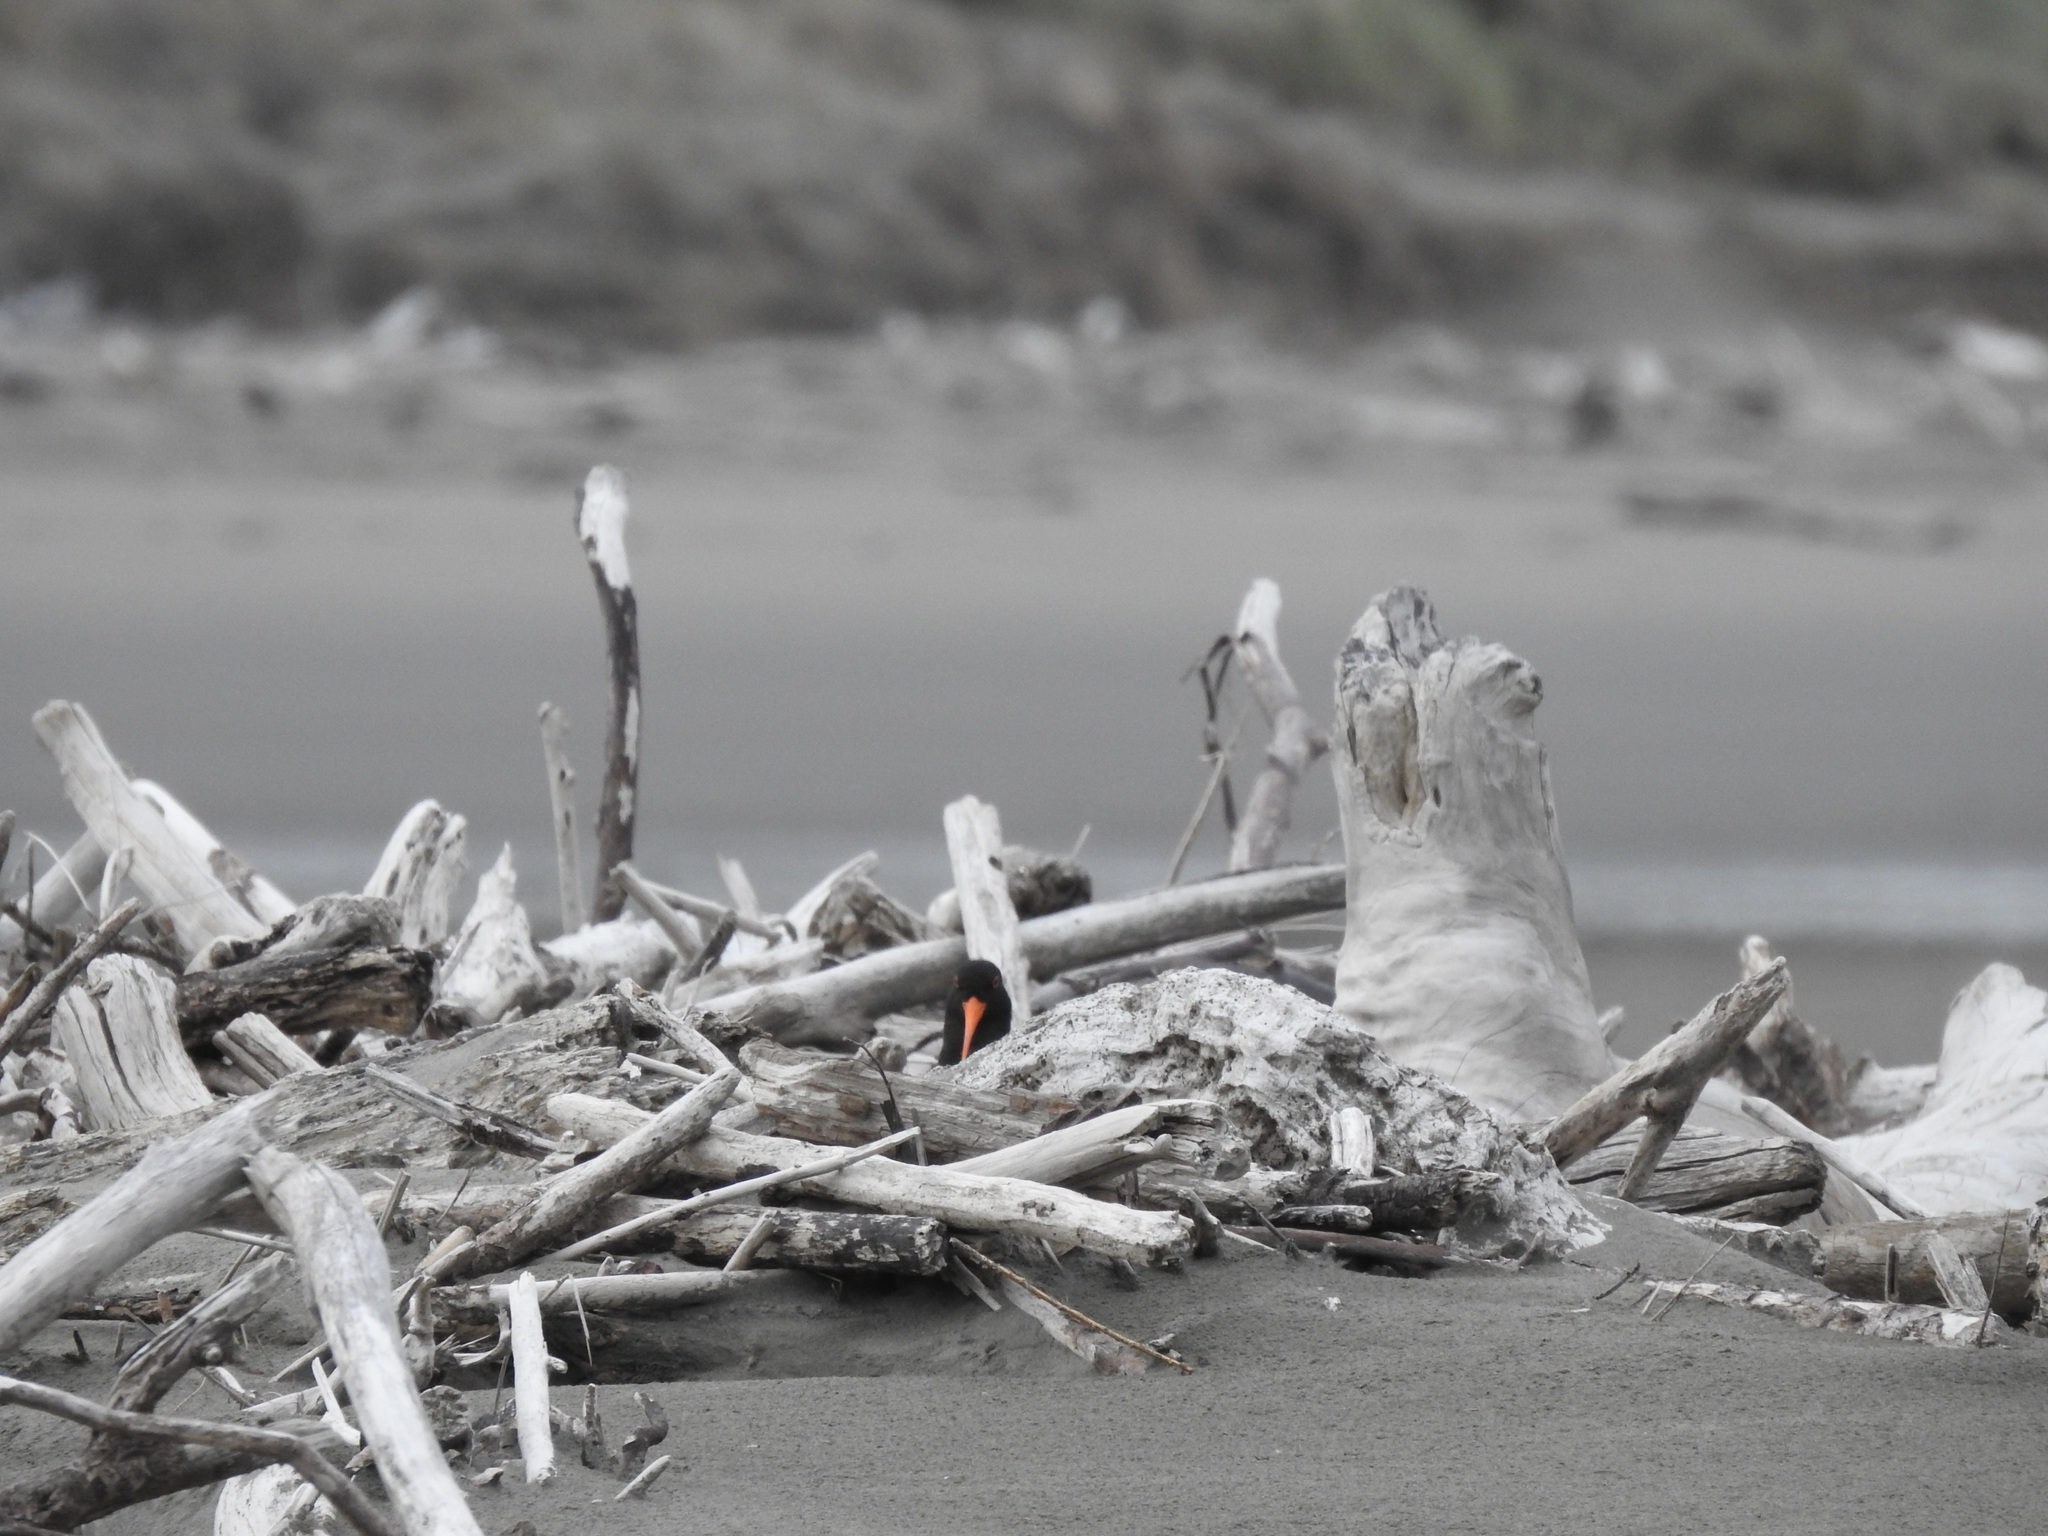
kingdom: Animalia
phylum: Chordata
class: Aves
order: Charadriiformes
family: Haematopodidae
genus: Haematopus
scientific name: Haematopus unicolor
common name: Variable oystercatcher
